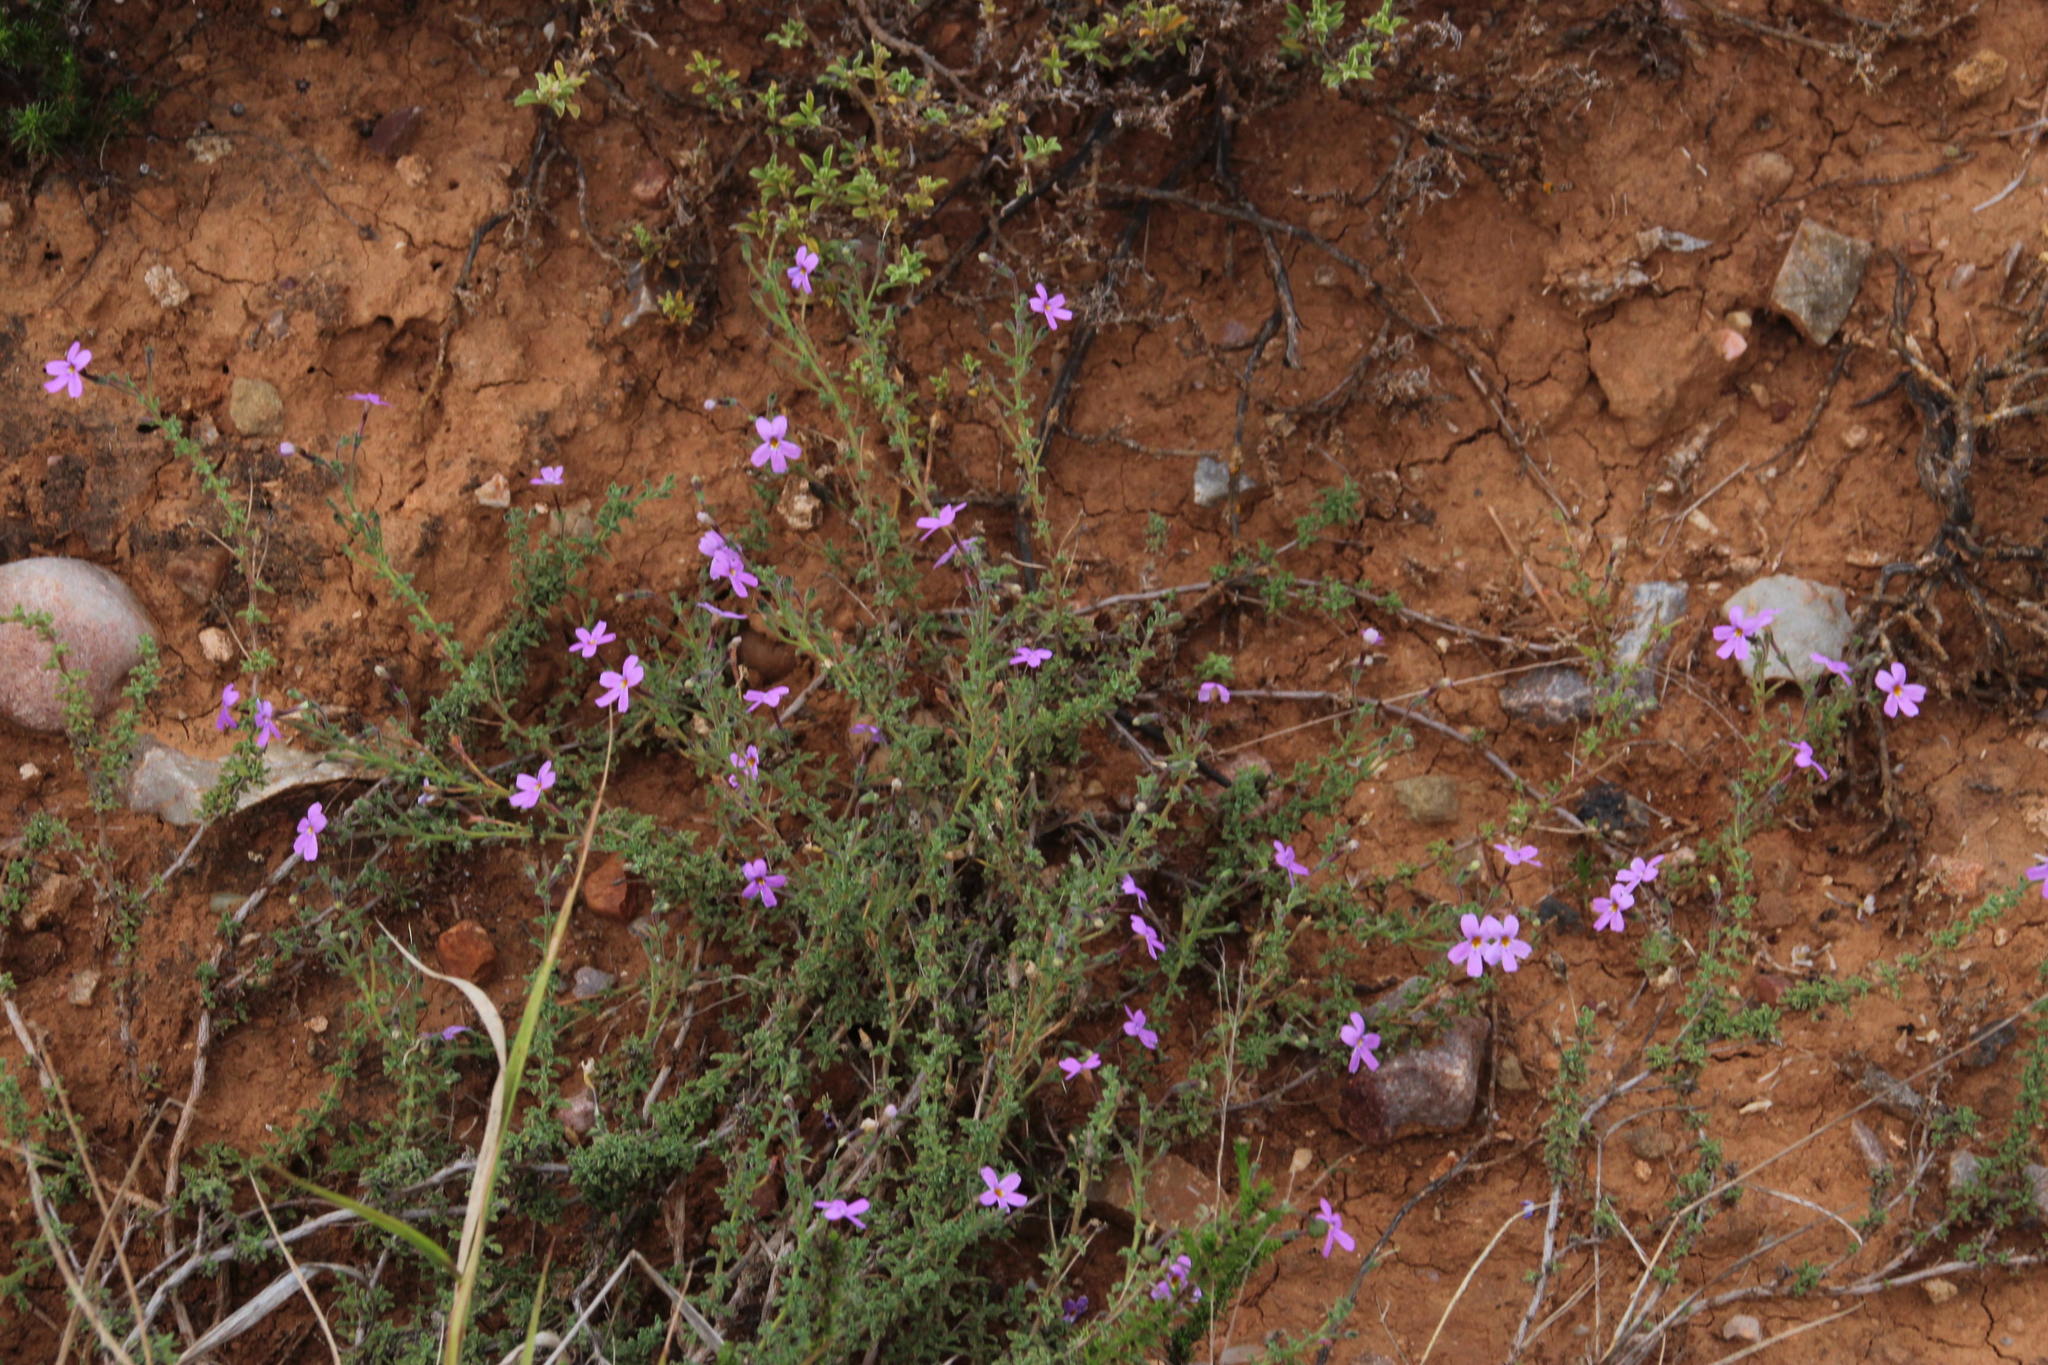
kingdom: Plantae
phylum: Tracheophyta
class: Magnoliopsida
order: Lamiales
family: Scrophulariaceae
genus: Jamesbrittenia
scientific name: Jamesbrittenia pinnatifida
